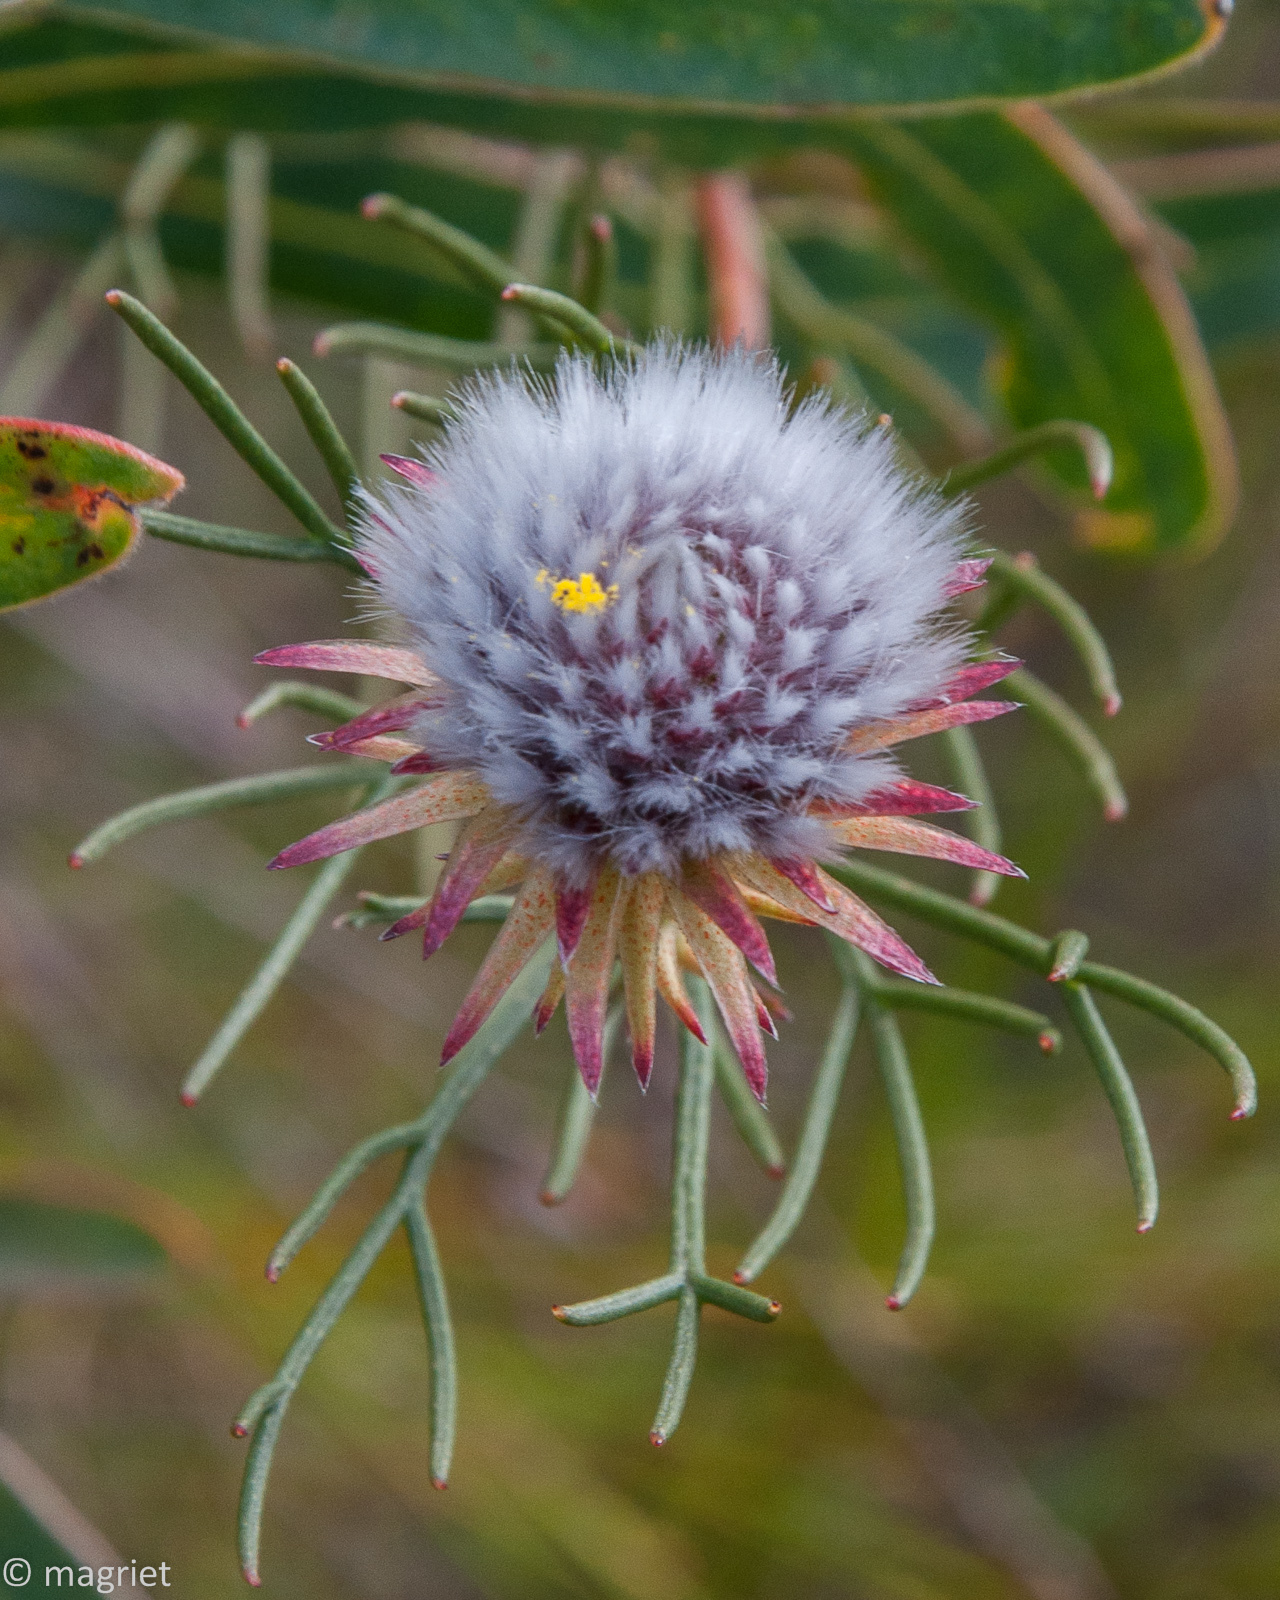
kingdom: Plantae
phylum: Tracheophyta
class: Magnoliopsida
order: Proteales
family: Proteaceae
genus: Serruria
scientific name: Serruria phylicoides
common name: Bearded spiderhead
